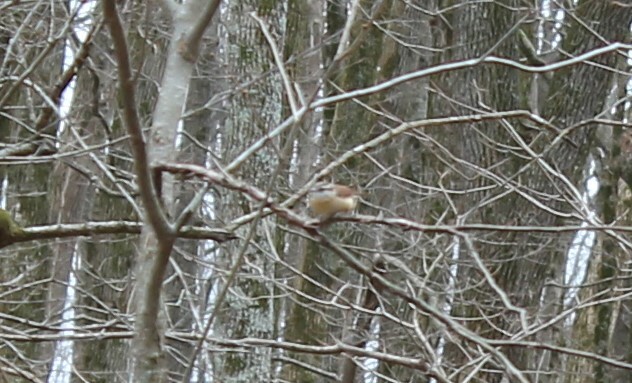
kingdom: Animalia
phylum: Chordata
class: Aves
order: Passeriformes
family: Troglodytidae
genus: Thryothorus
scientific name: Thryothorus ludovicianus
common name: Carolina wren
